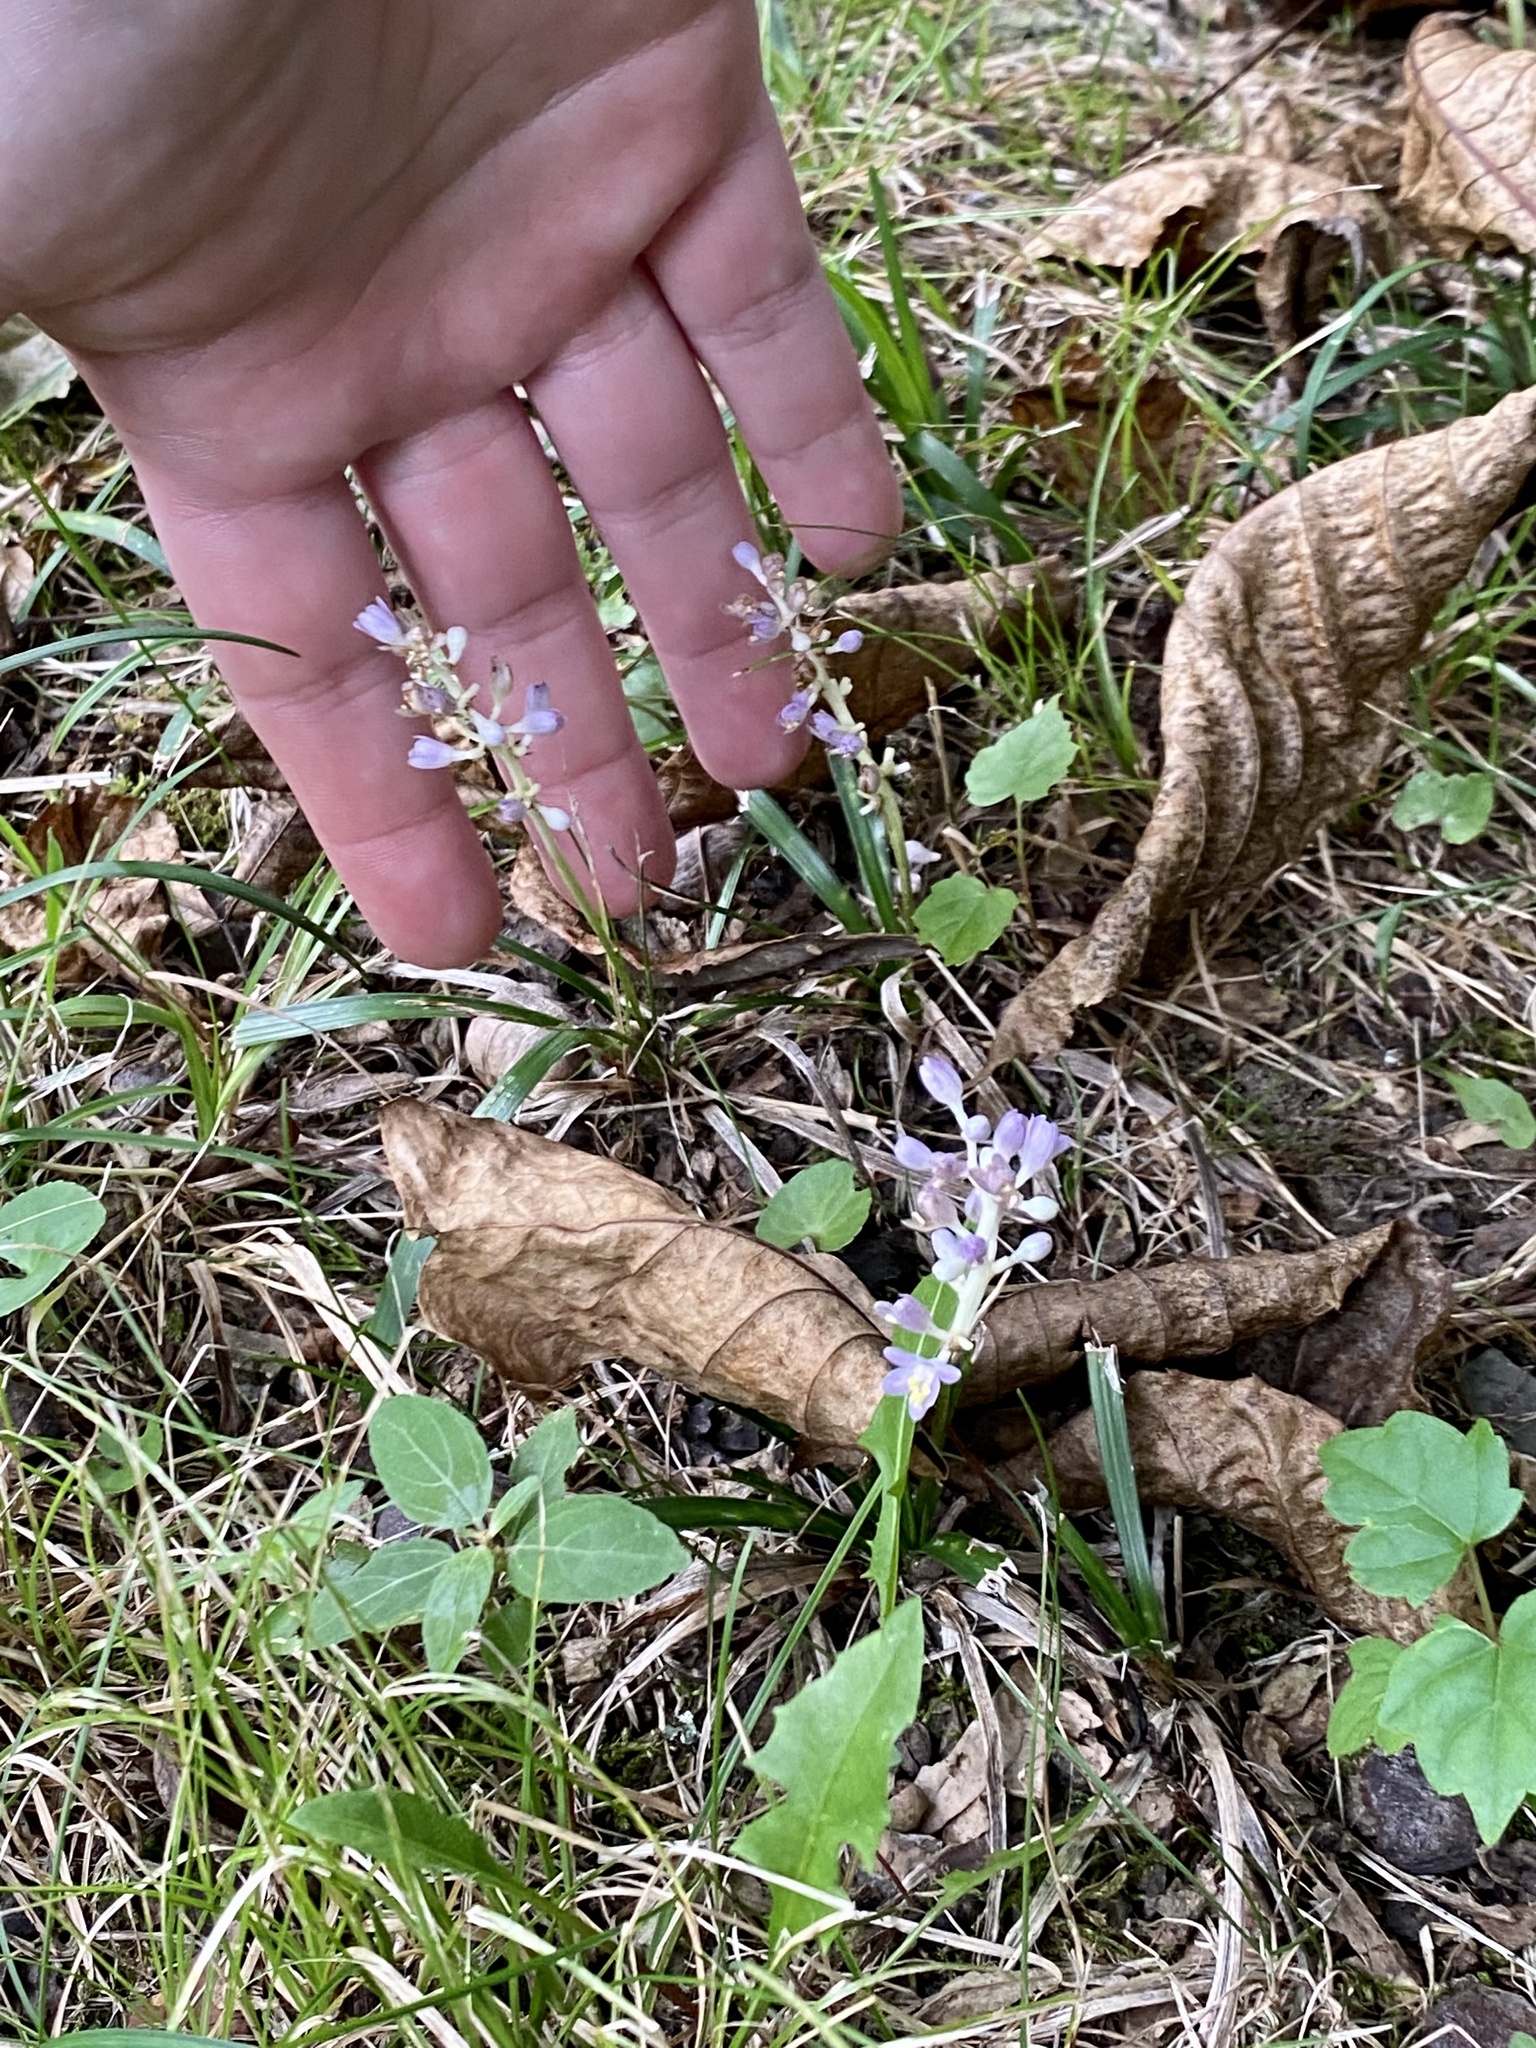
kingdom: Plantae
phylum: Tracheophyta
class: Liliopsida
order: Asparagales
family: Asparagaceae
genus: Liriope
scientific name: Liriope spicata
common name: Creeping liriope
